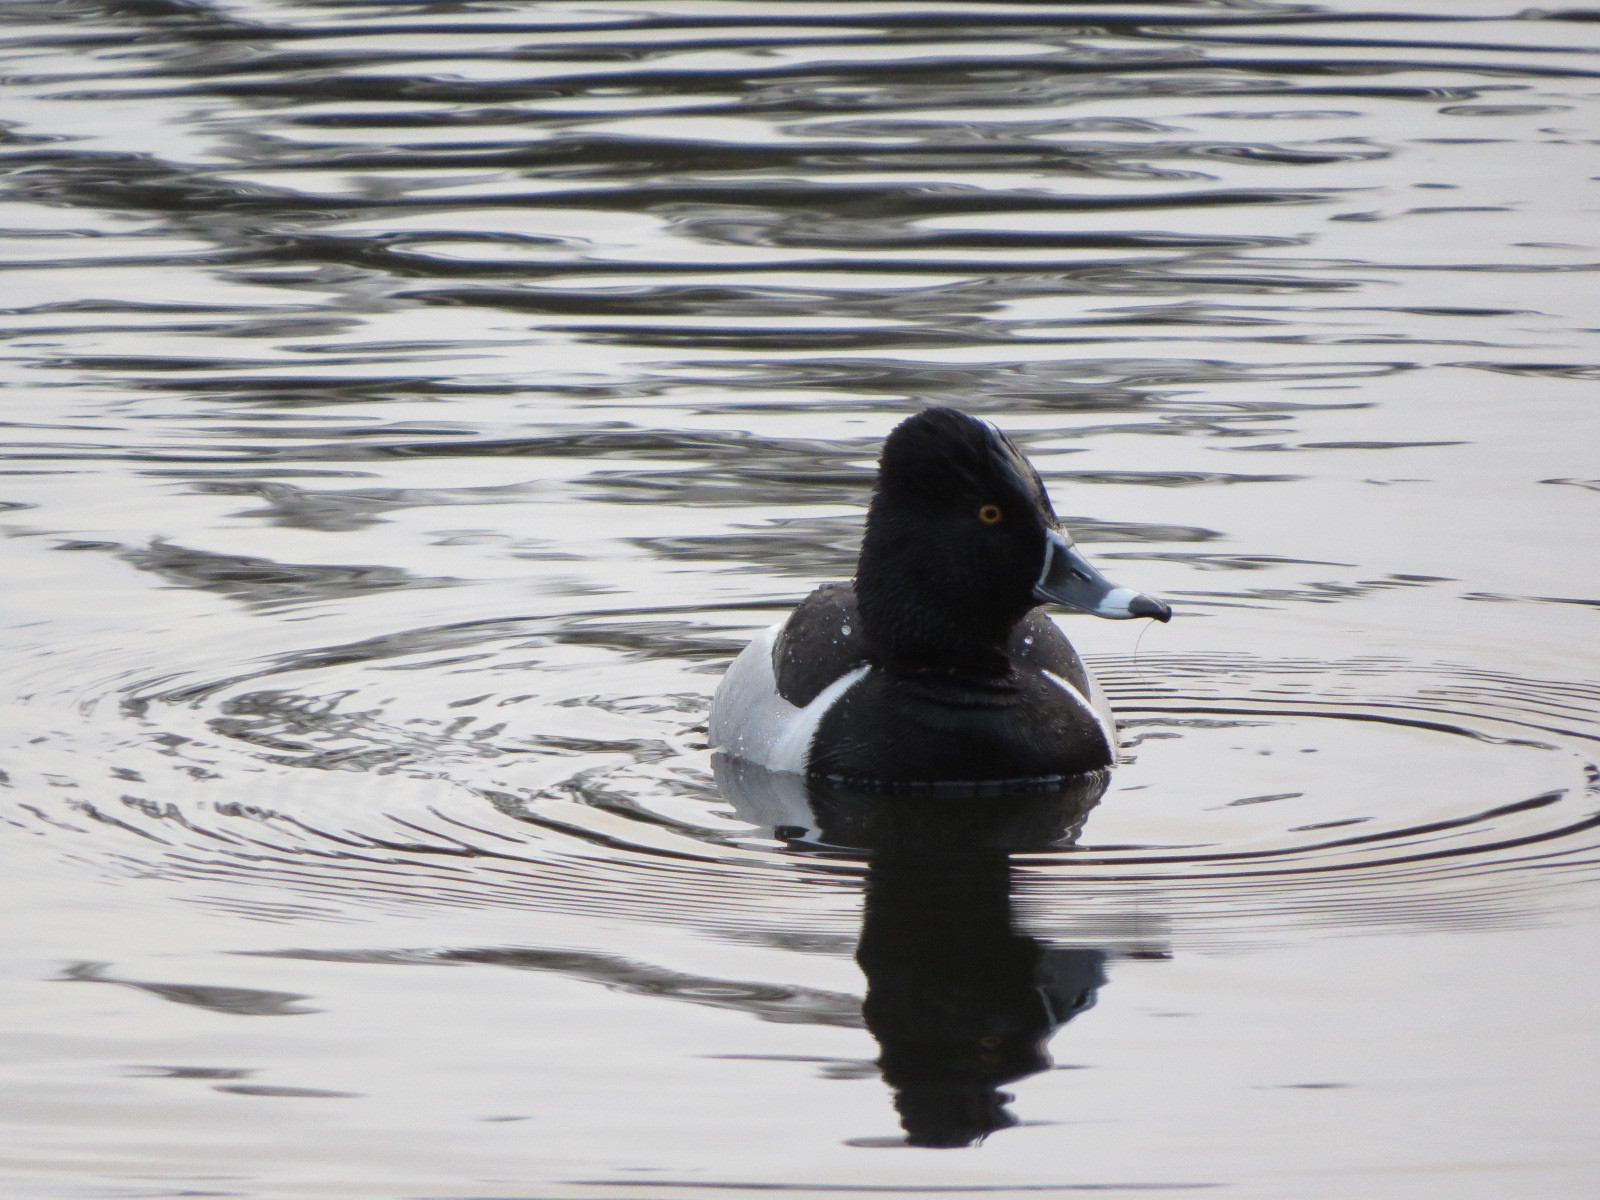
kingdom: Animalia
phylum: Chordata
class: Aves
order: Anseriformes
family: Anatidae
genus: Aythya
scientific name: Aythya collaris
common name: Ring-necked duck
